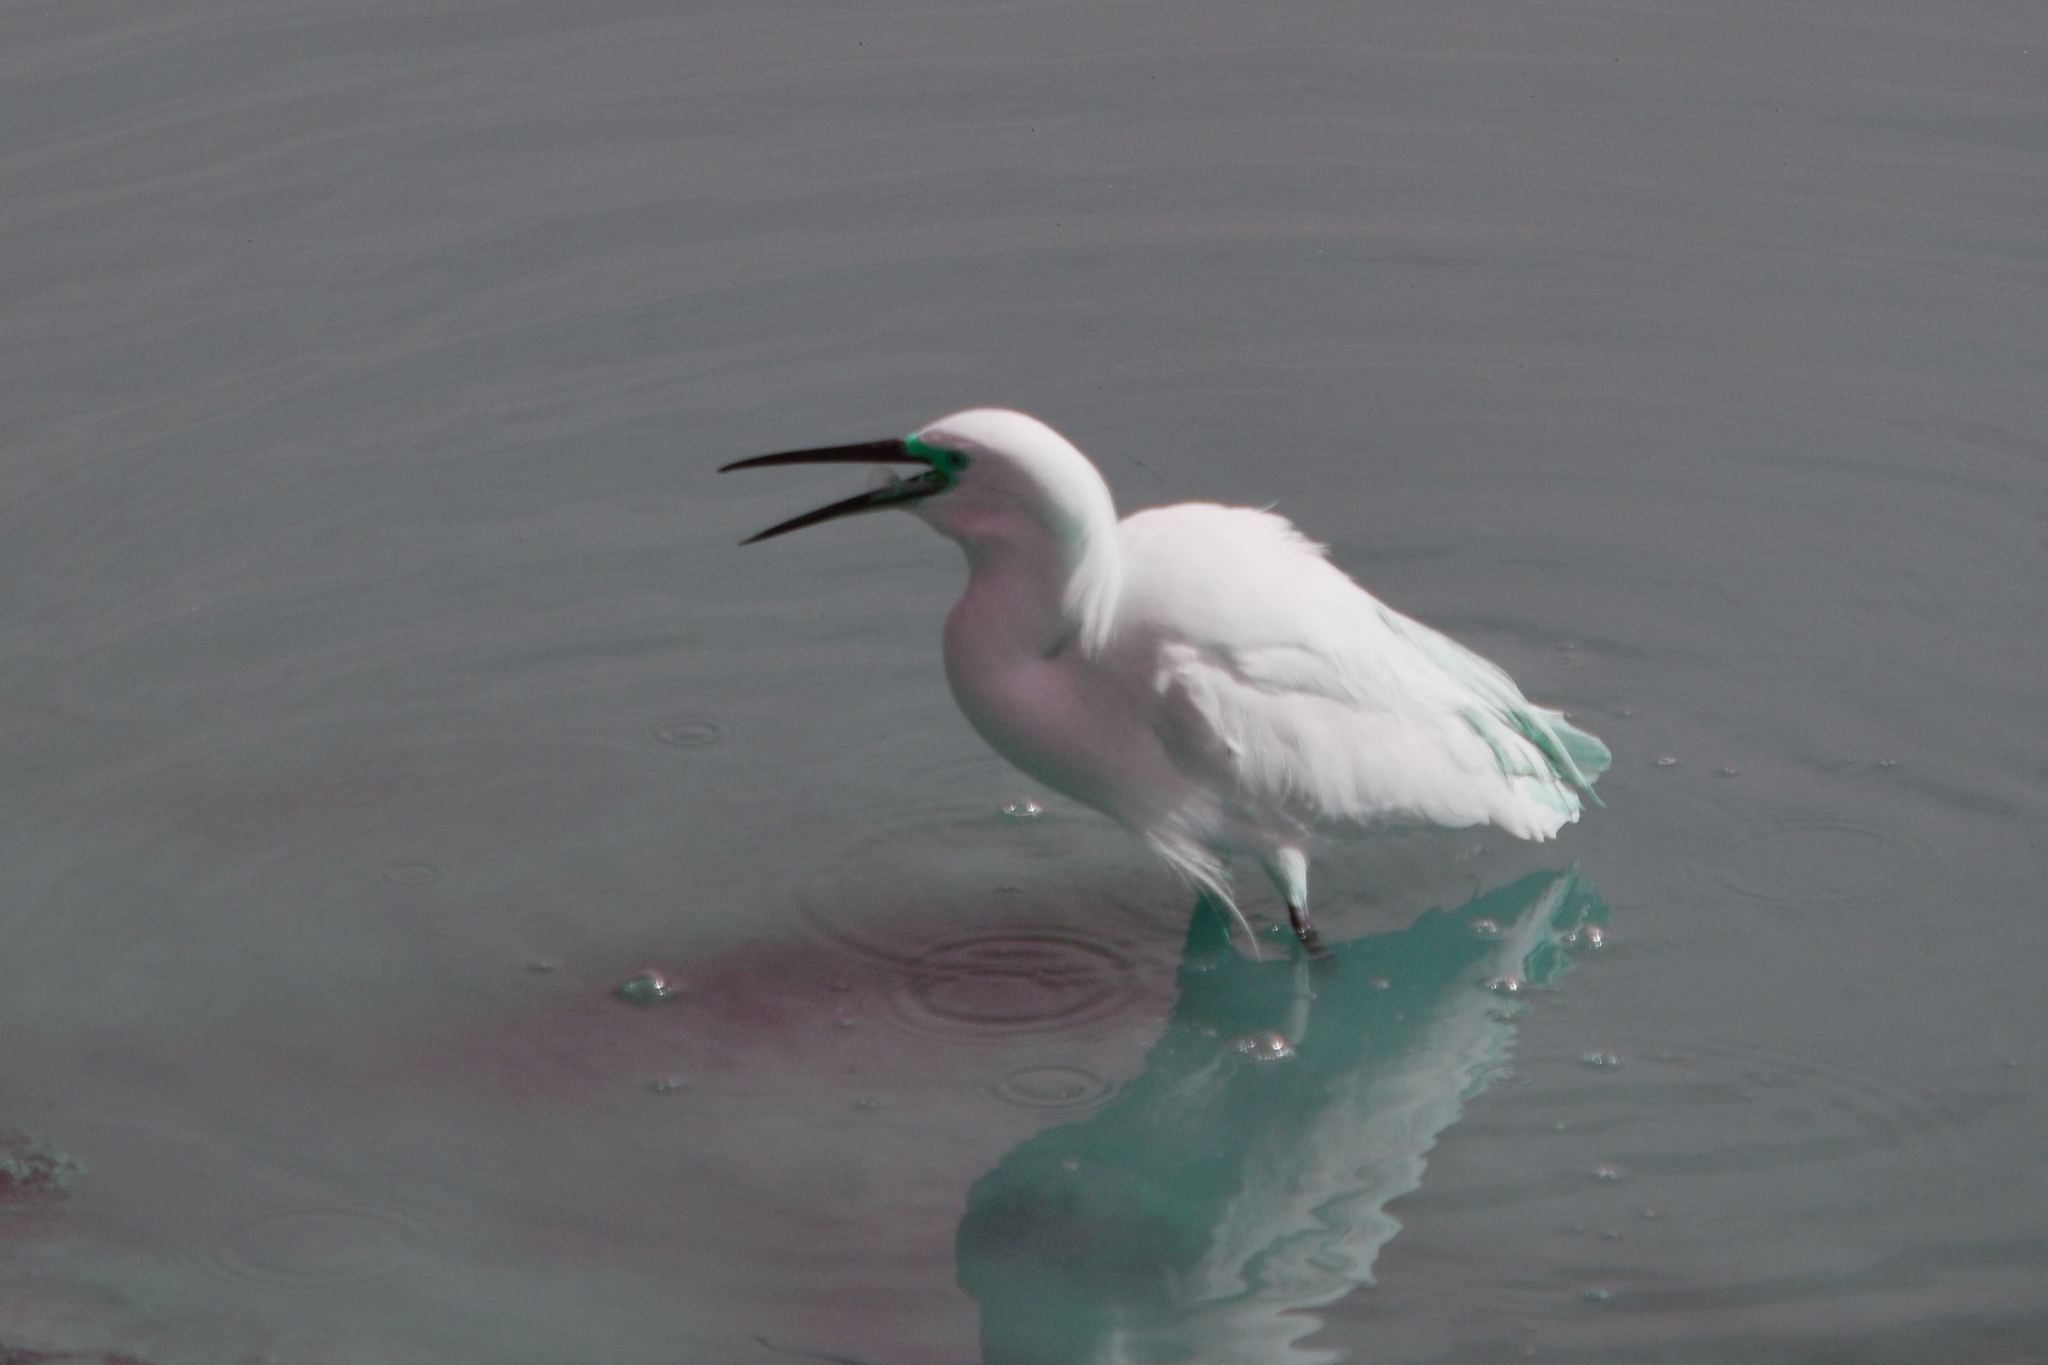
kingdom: Animalia
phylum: Chordata
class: Aves
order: Pelecaniformes
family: Ardeidae
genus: Egretta
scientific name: Egretta thula
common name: Snowy egret
